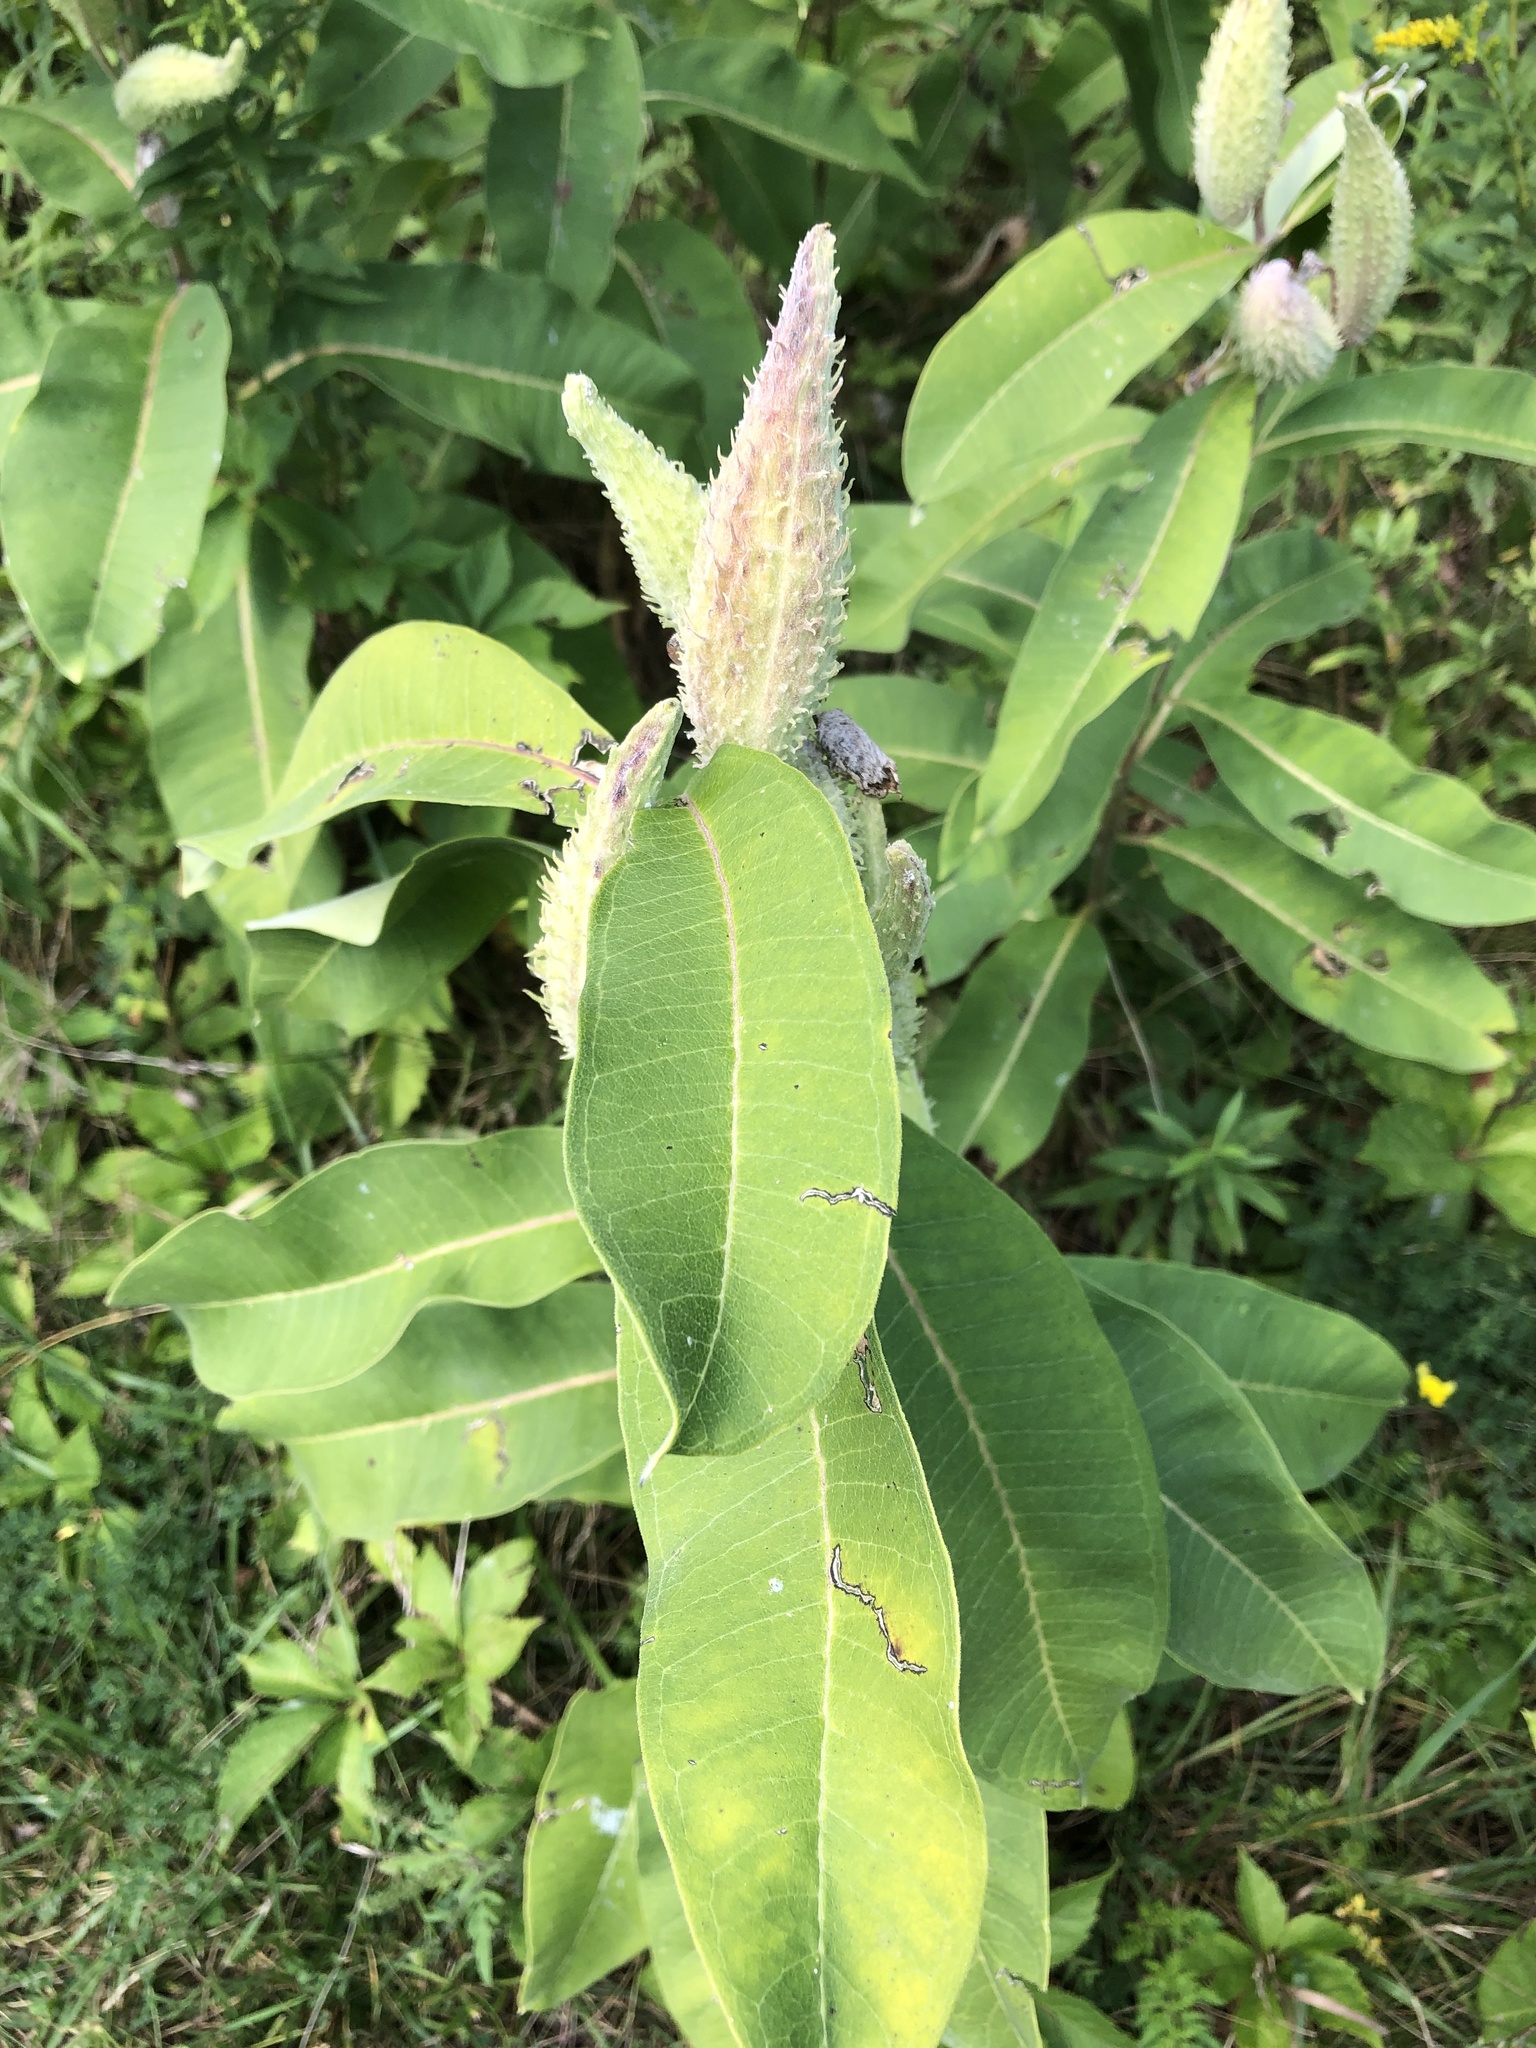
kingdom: Plantae
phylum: Tracheophyta
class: Magnoliopsida
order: Gentianales
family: Apocynaceae
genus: Asclepias
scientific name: Asclepias syriaca
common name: Common milkweed
